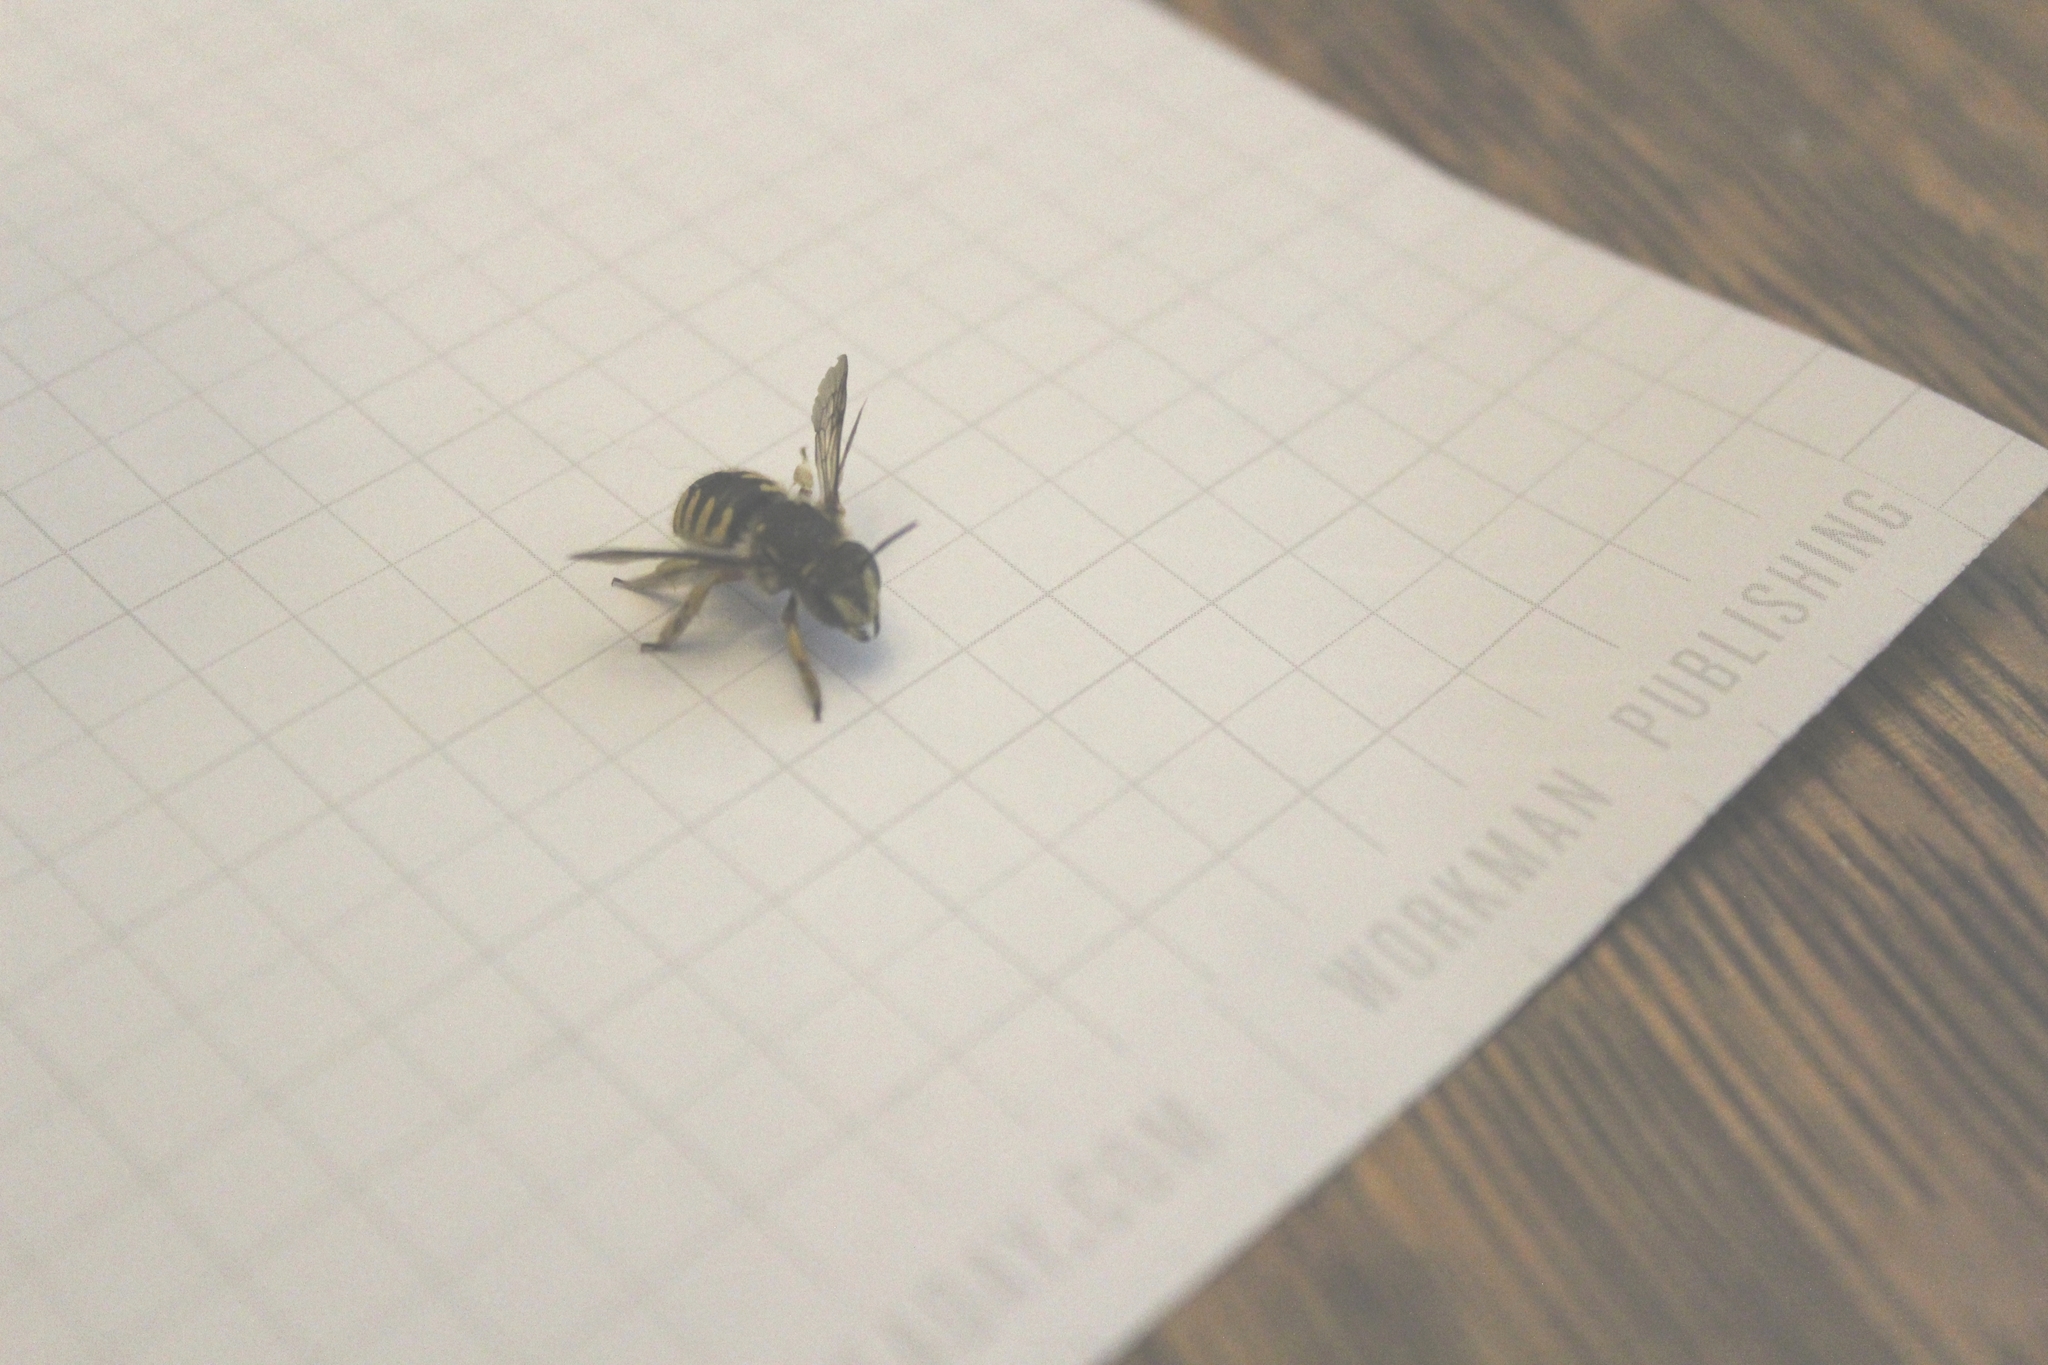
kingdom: Animalia
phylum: Arthropoda
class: Insecta
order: Hymenoptera
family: Megachilidae
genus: Anthidium
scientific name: Anthidium manicatum
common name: Wool carder bee
